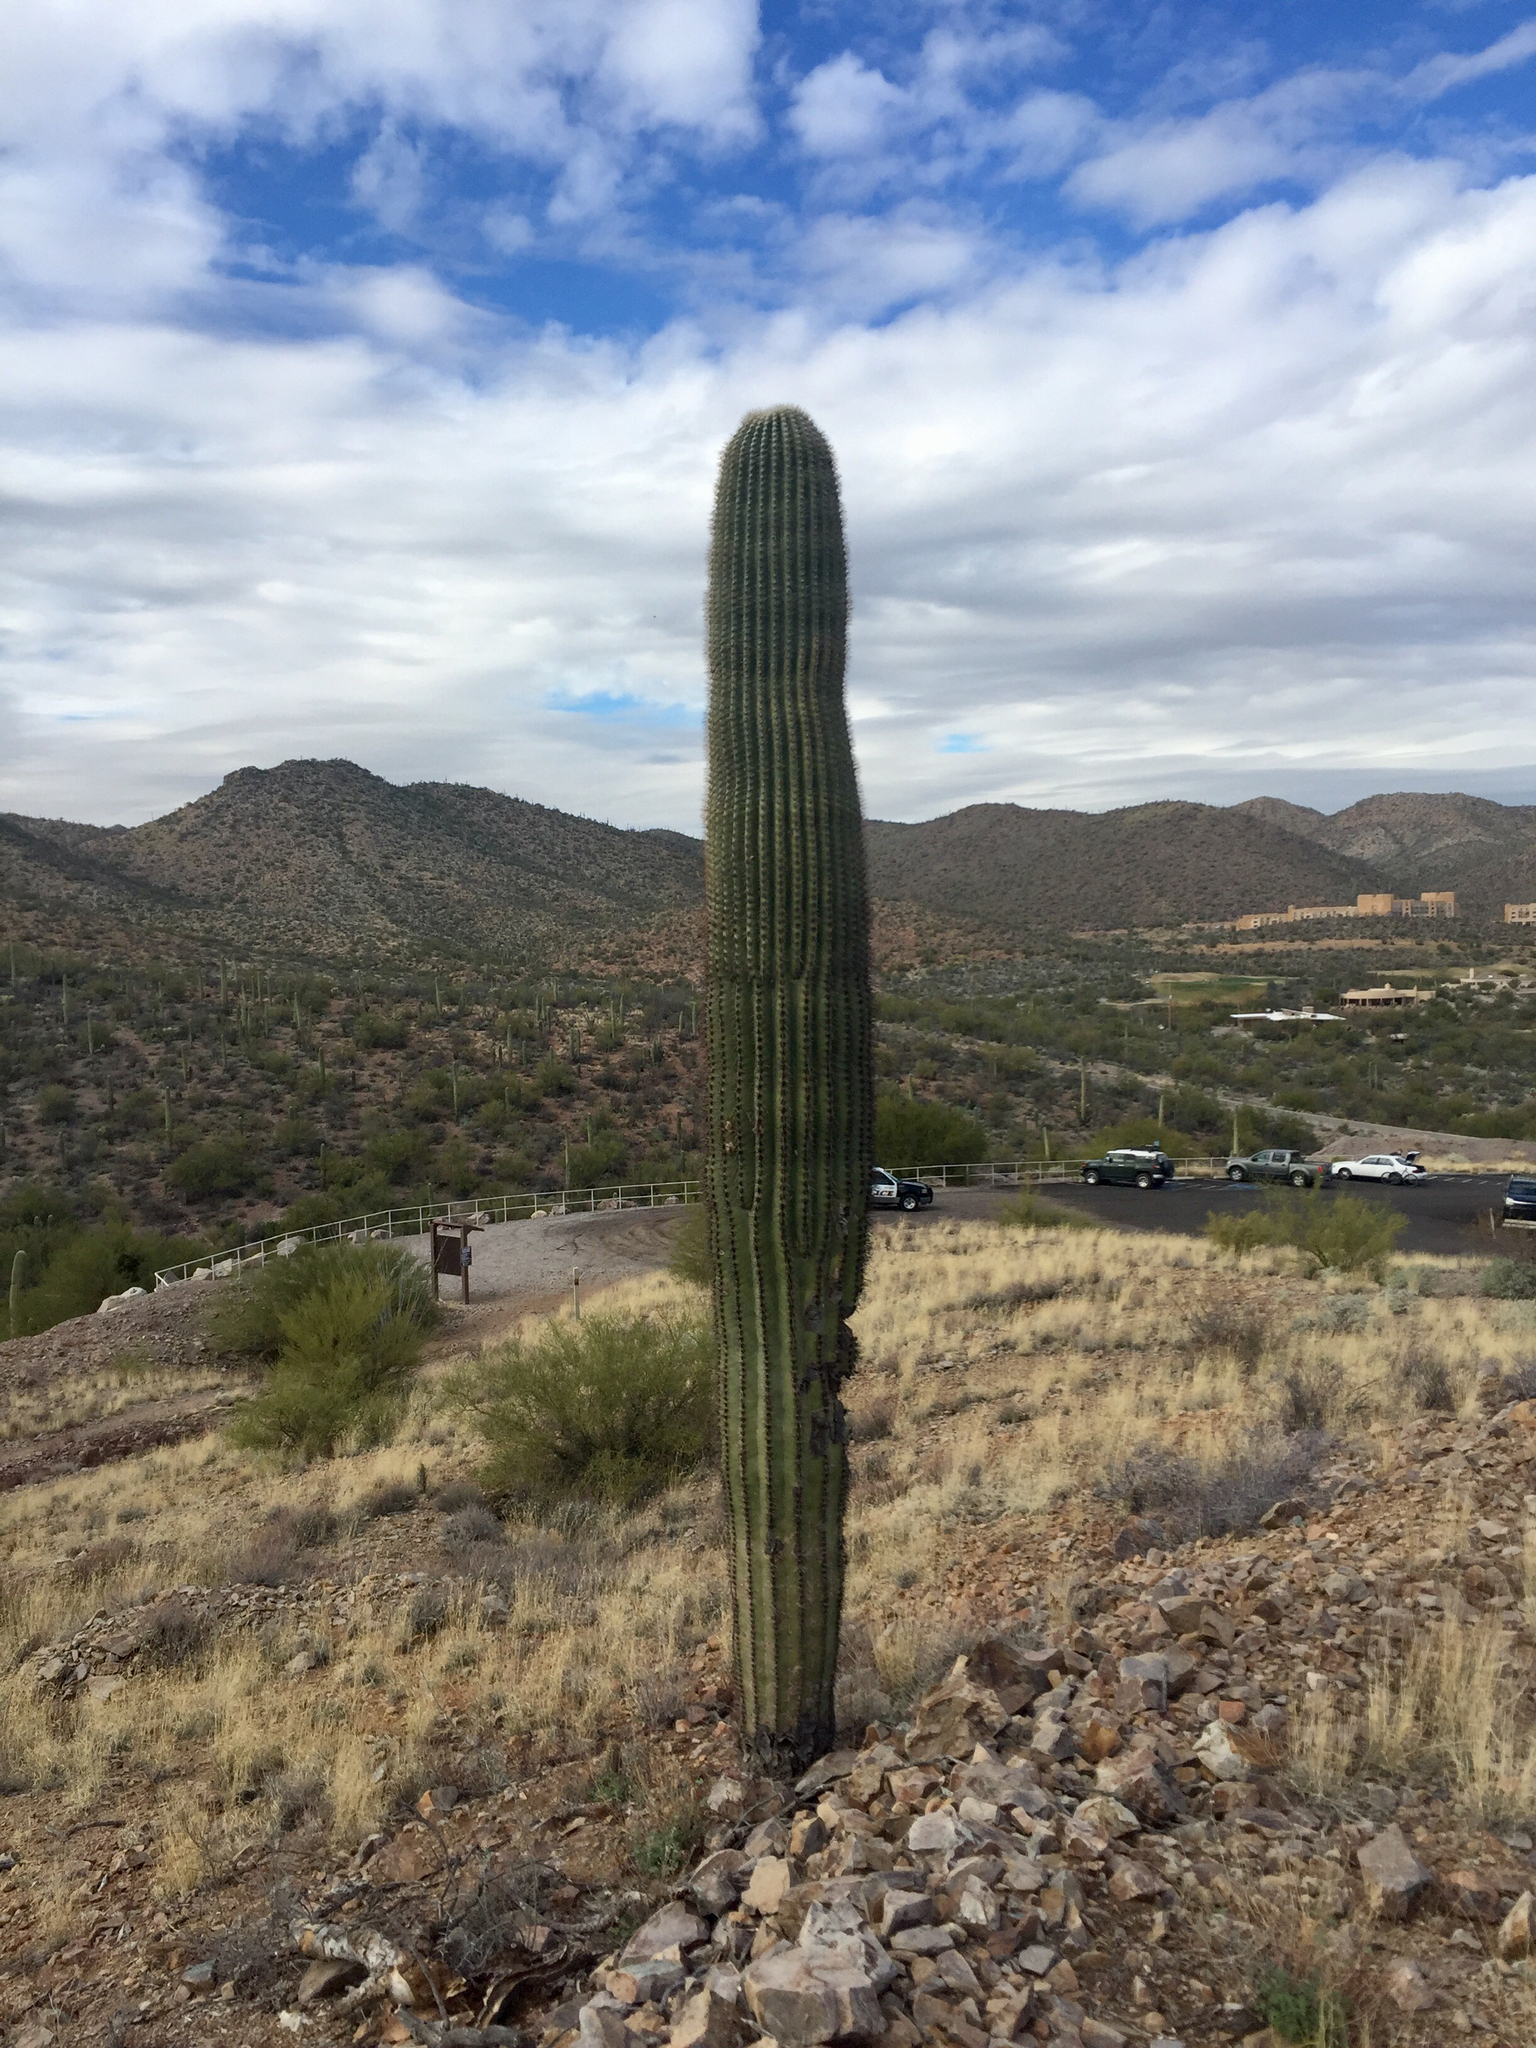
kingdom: Plantae
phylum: Tracheophyta
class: Magnoliopsida
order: Caryophyllales
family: Cactaceae
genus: Carnegiea
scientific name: Carnegiea gigantea
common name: Saguaro
